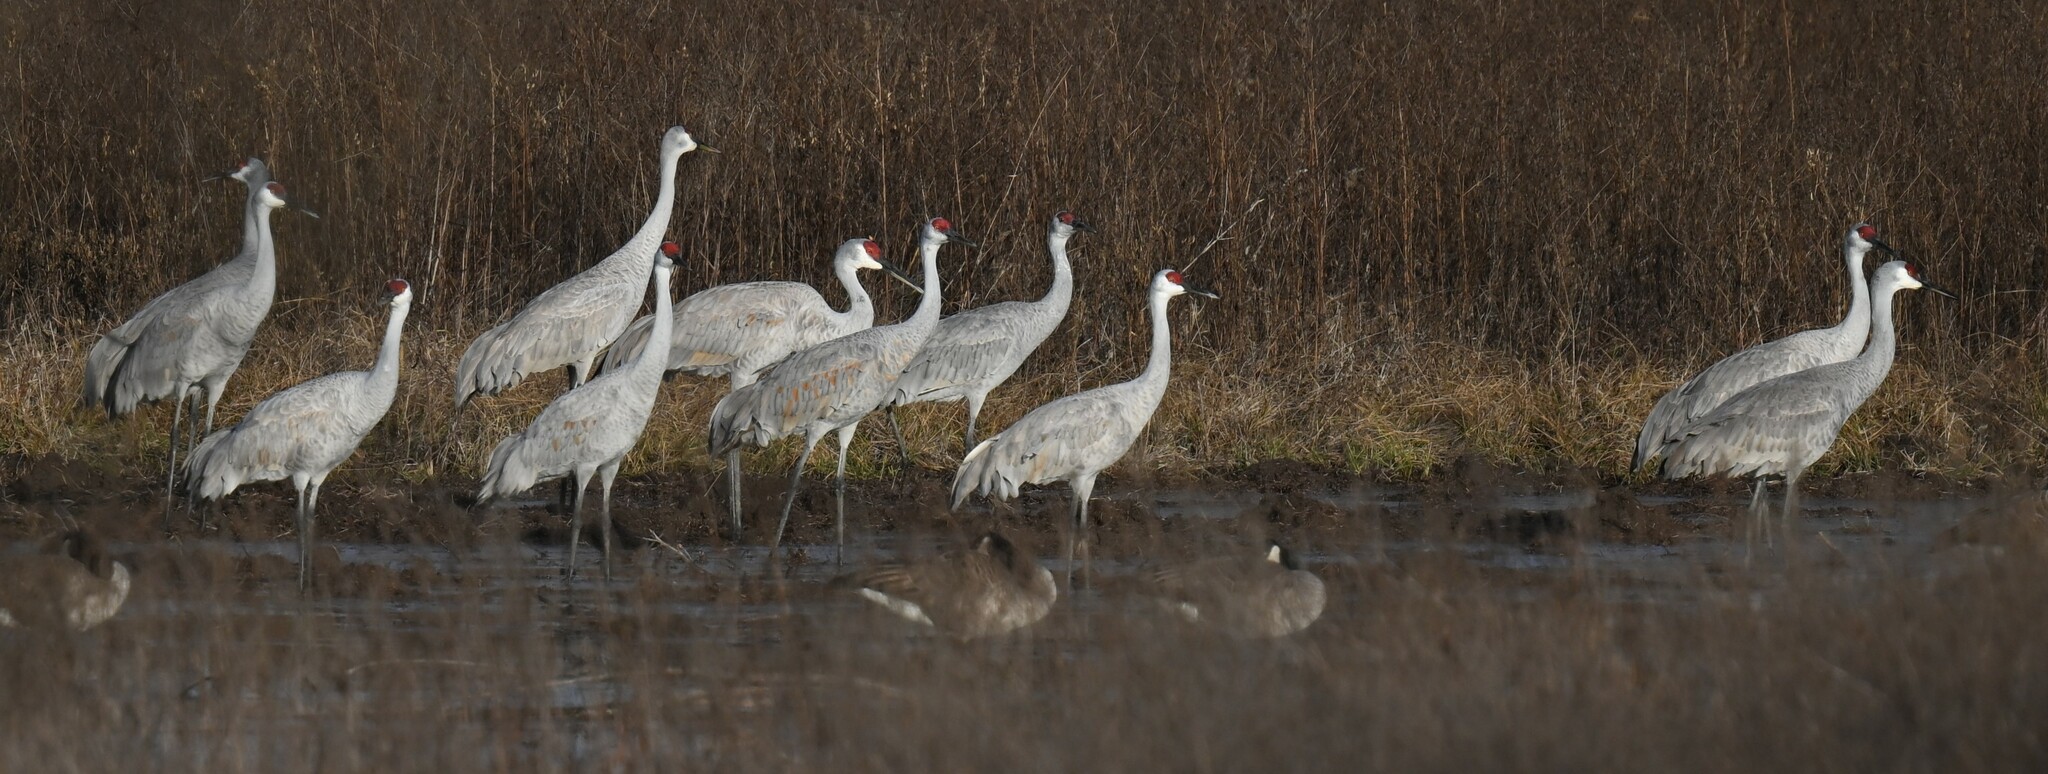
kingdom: Animalia
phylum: Chordata
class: Aves
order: Gruiformes
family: Gruidae
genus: Grus
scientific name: Grus canadensis
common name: Sandhill crane
